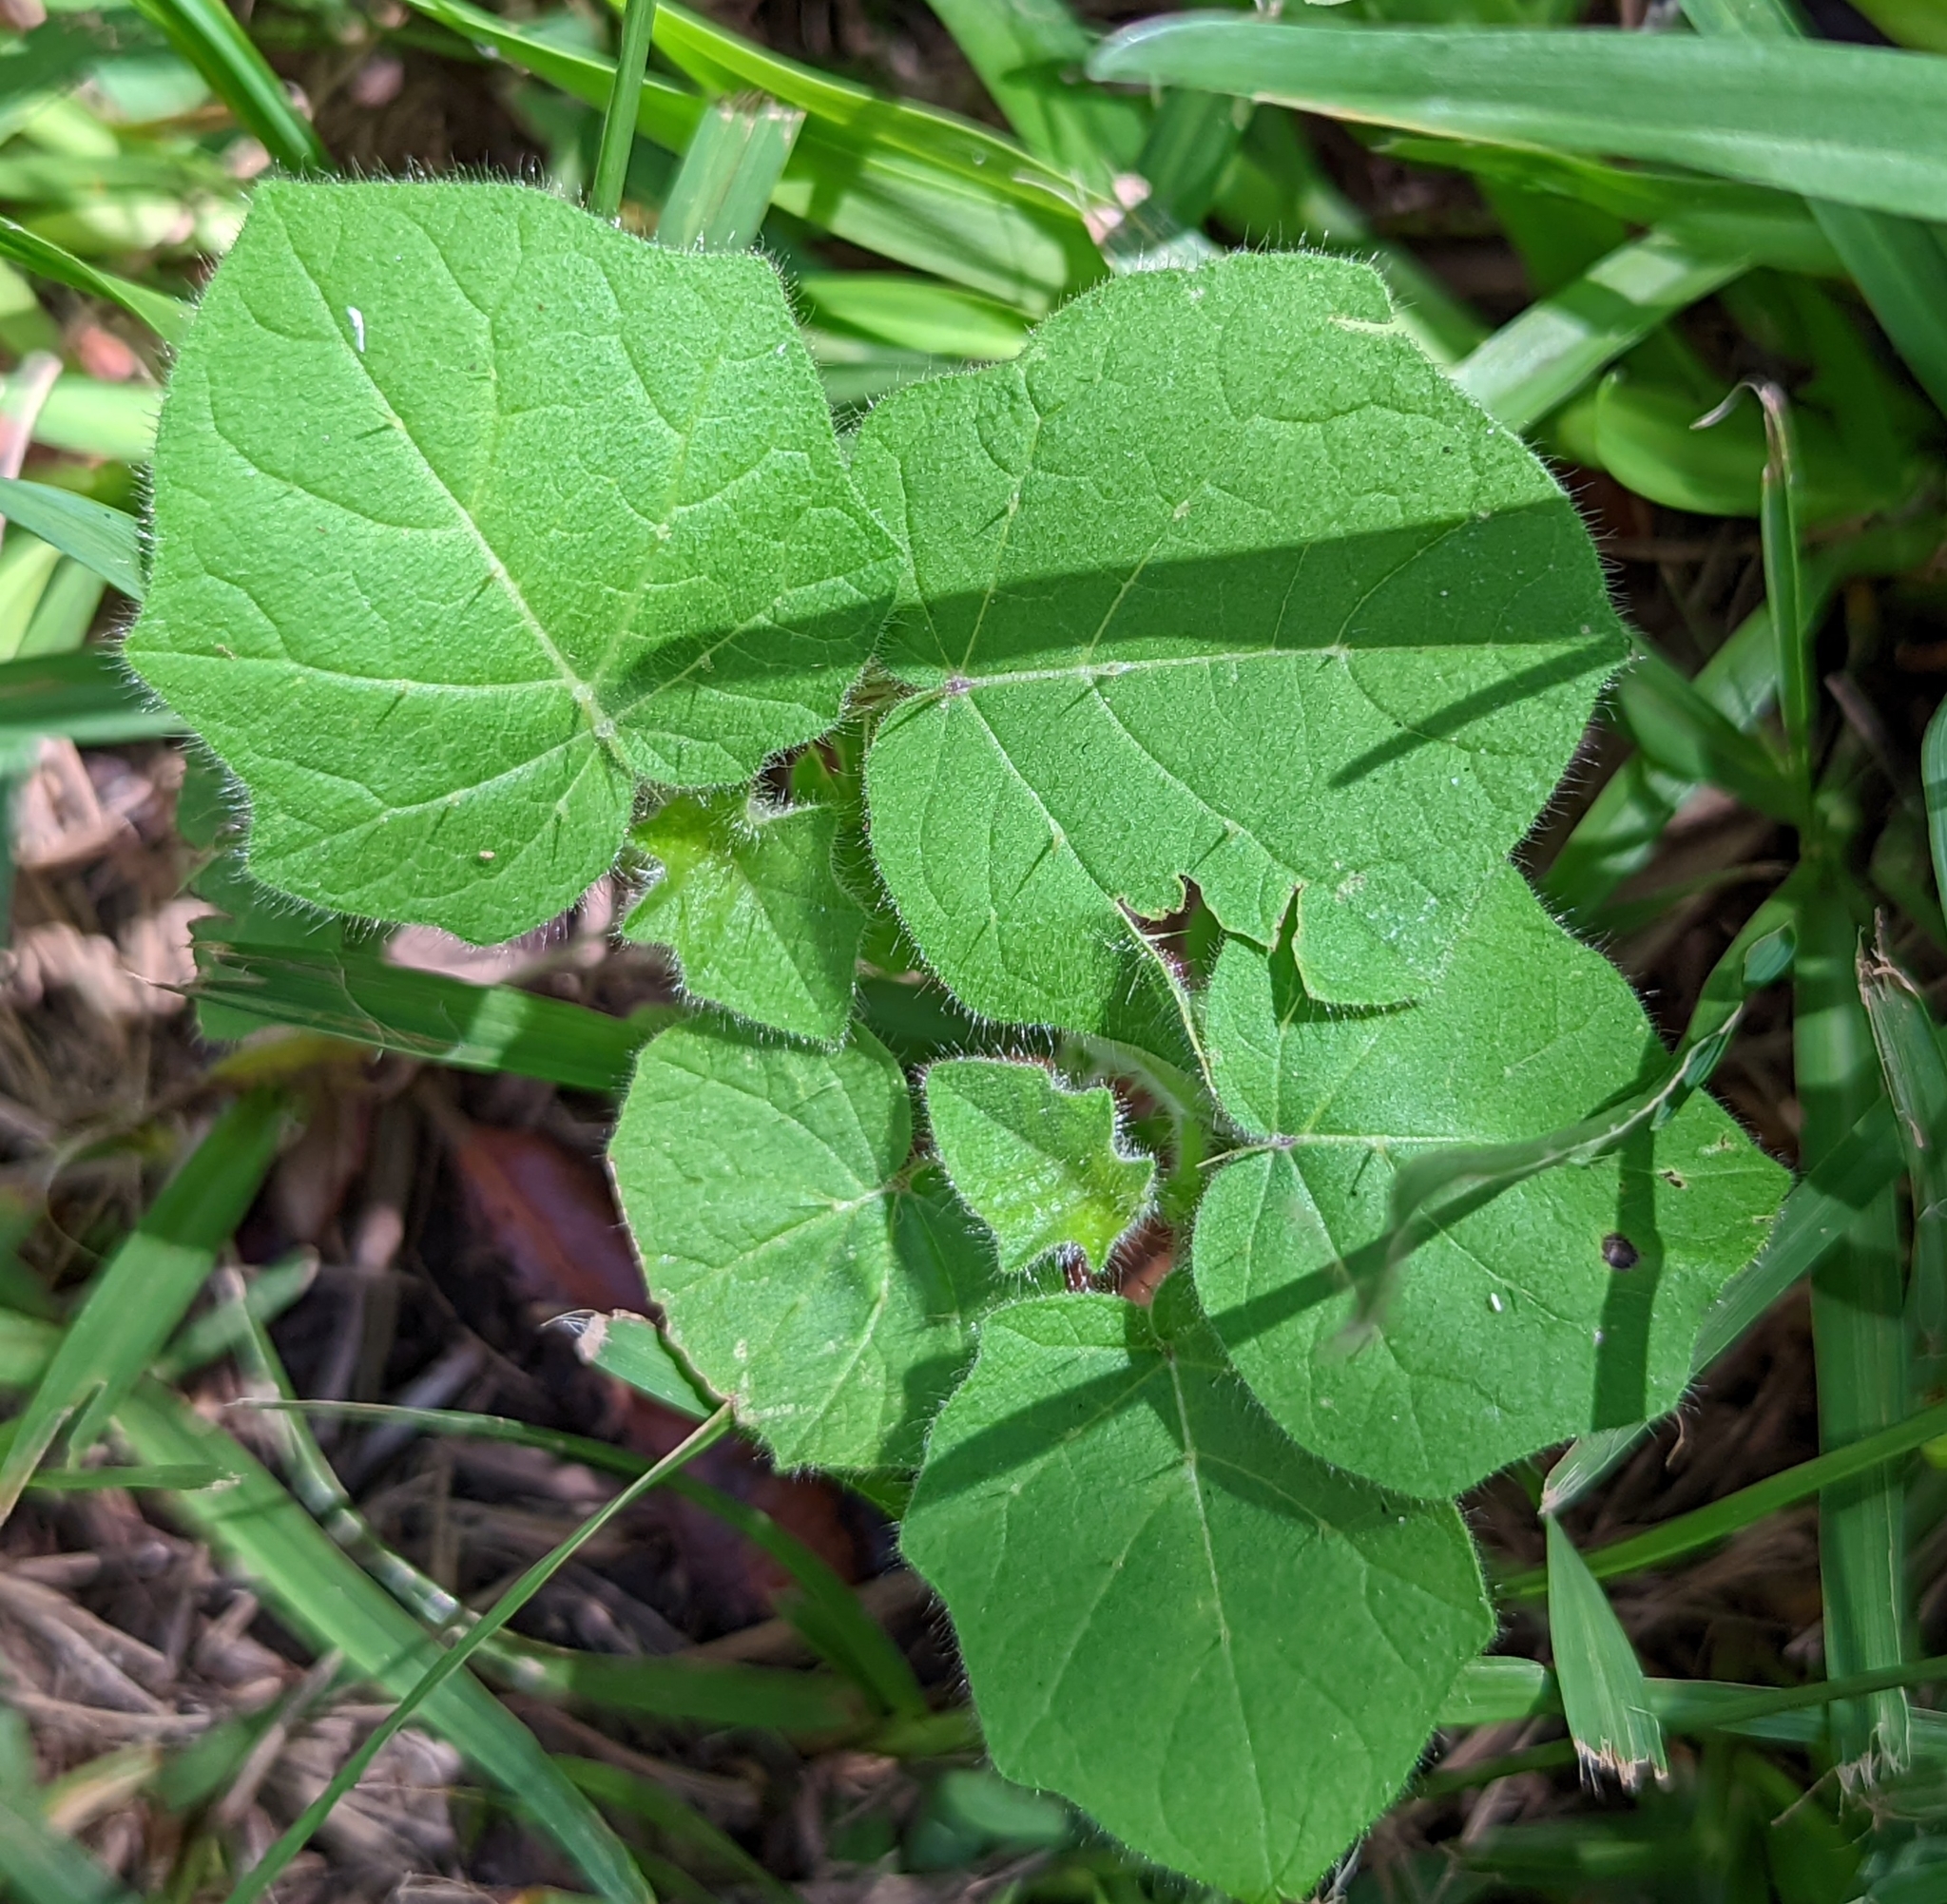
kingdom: Plantae
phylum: Tracheophyta
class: Magnoliopsida
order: Solanales
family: Solanaceae
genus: Solanum
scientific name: Solanum viarum
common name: Tropical soda apple
